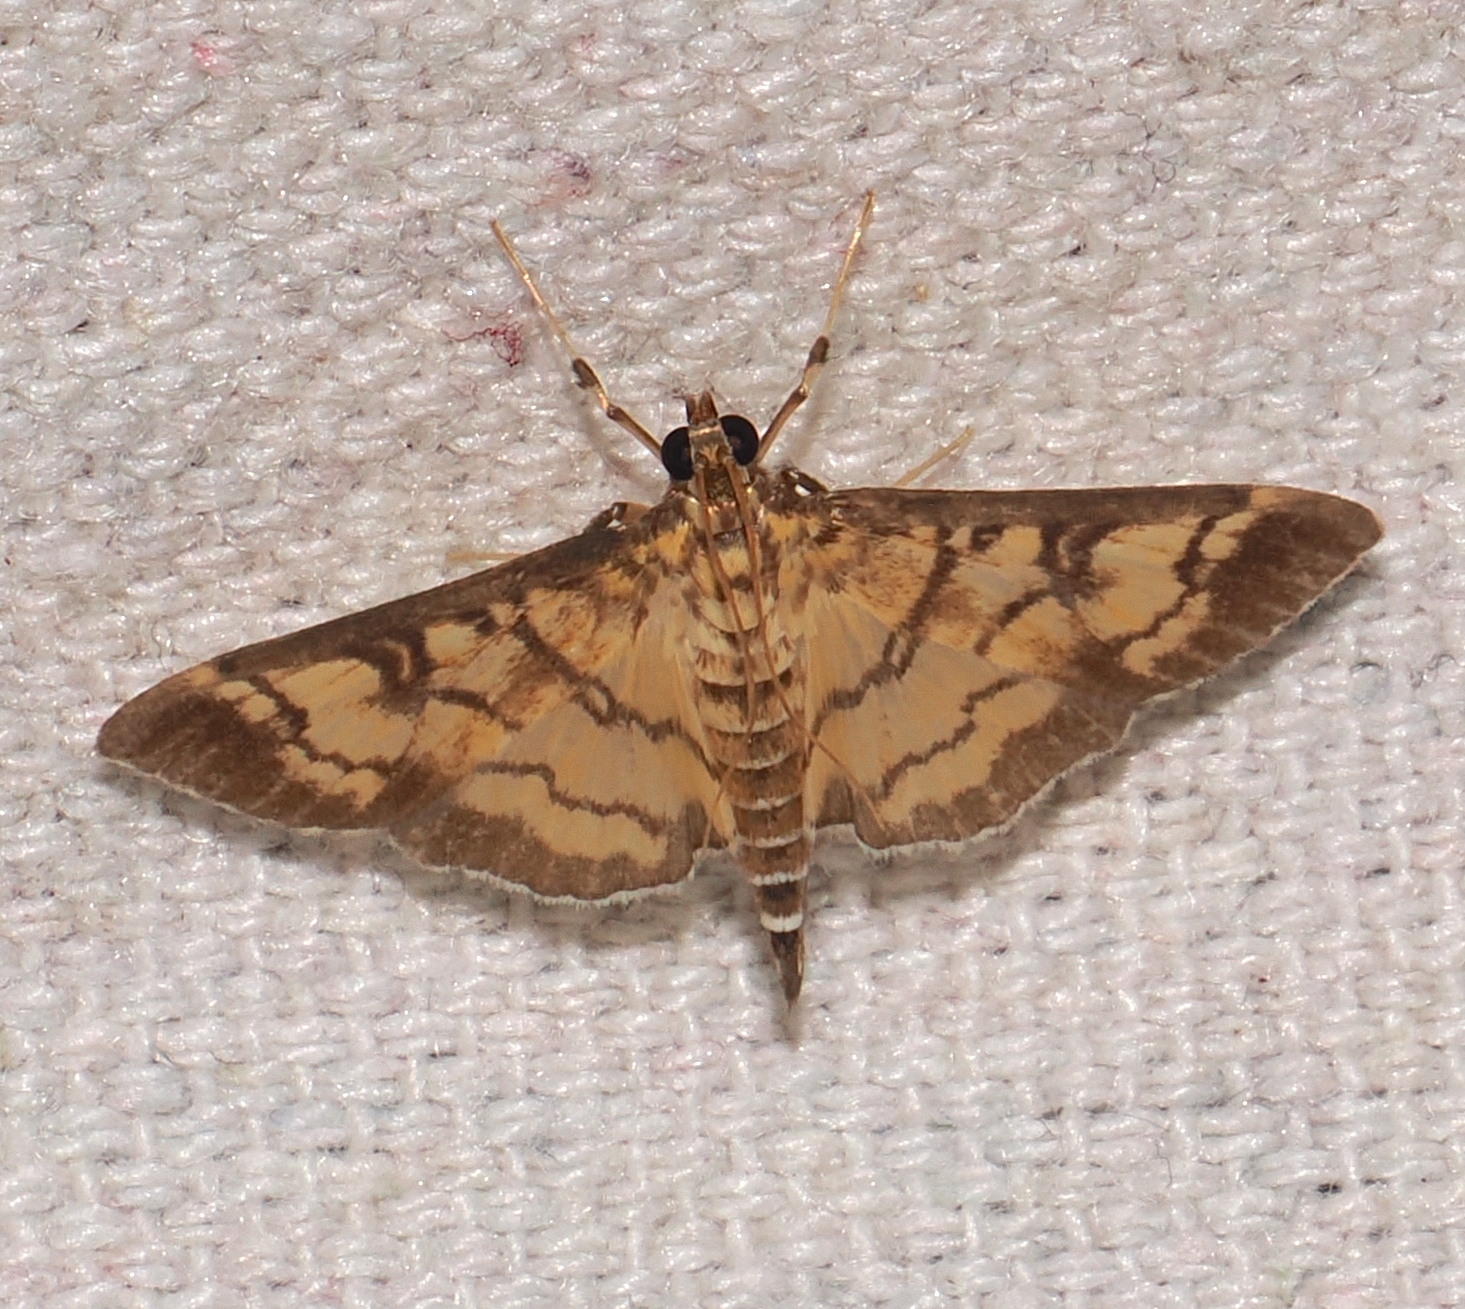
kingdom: Animalia
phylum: Arthropoda
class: Insecta
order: Lepidoptera
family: Crambidae
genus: Ategumia
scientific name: Ategumia matutinalis
